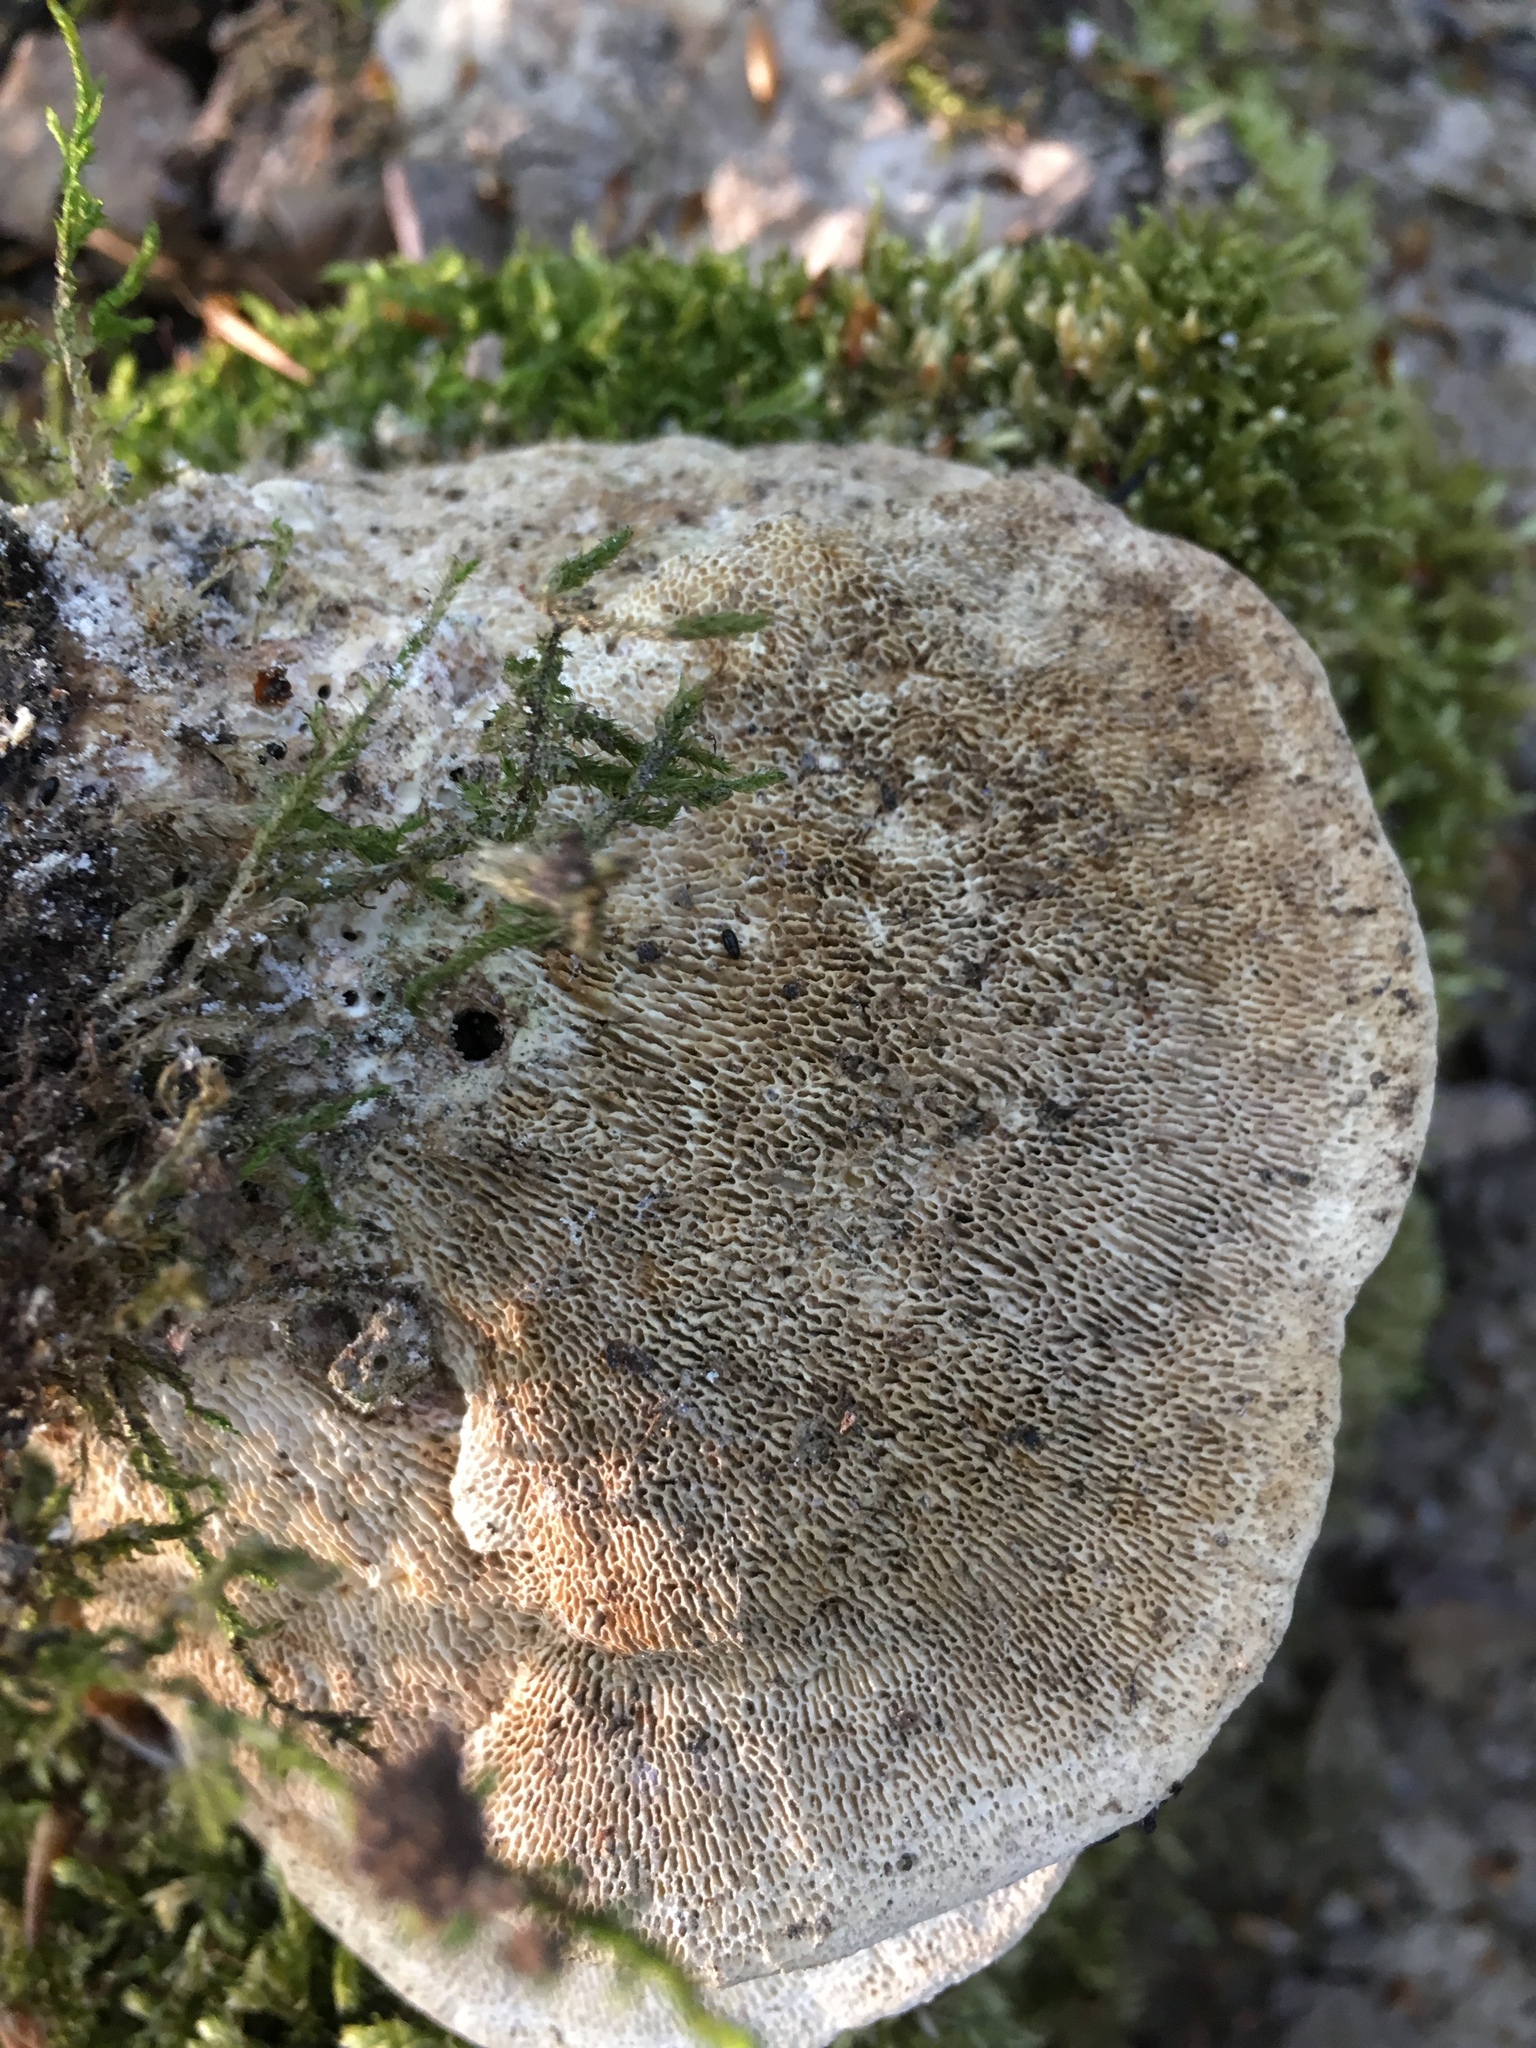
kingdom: Fungi
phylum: Basidiomycota
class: Agaricomycetes
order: Polyporales
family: Polyporaceae
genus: Trametes
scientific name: Trametes gibbosa
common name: Lumpy bracket
